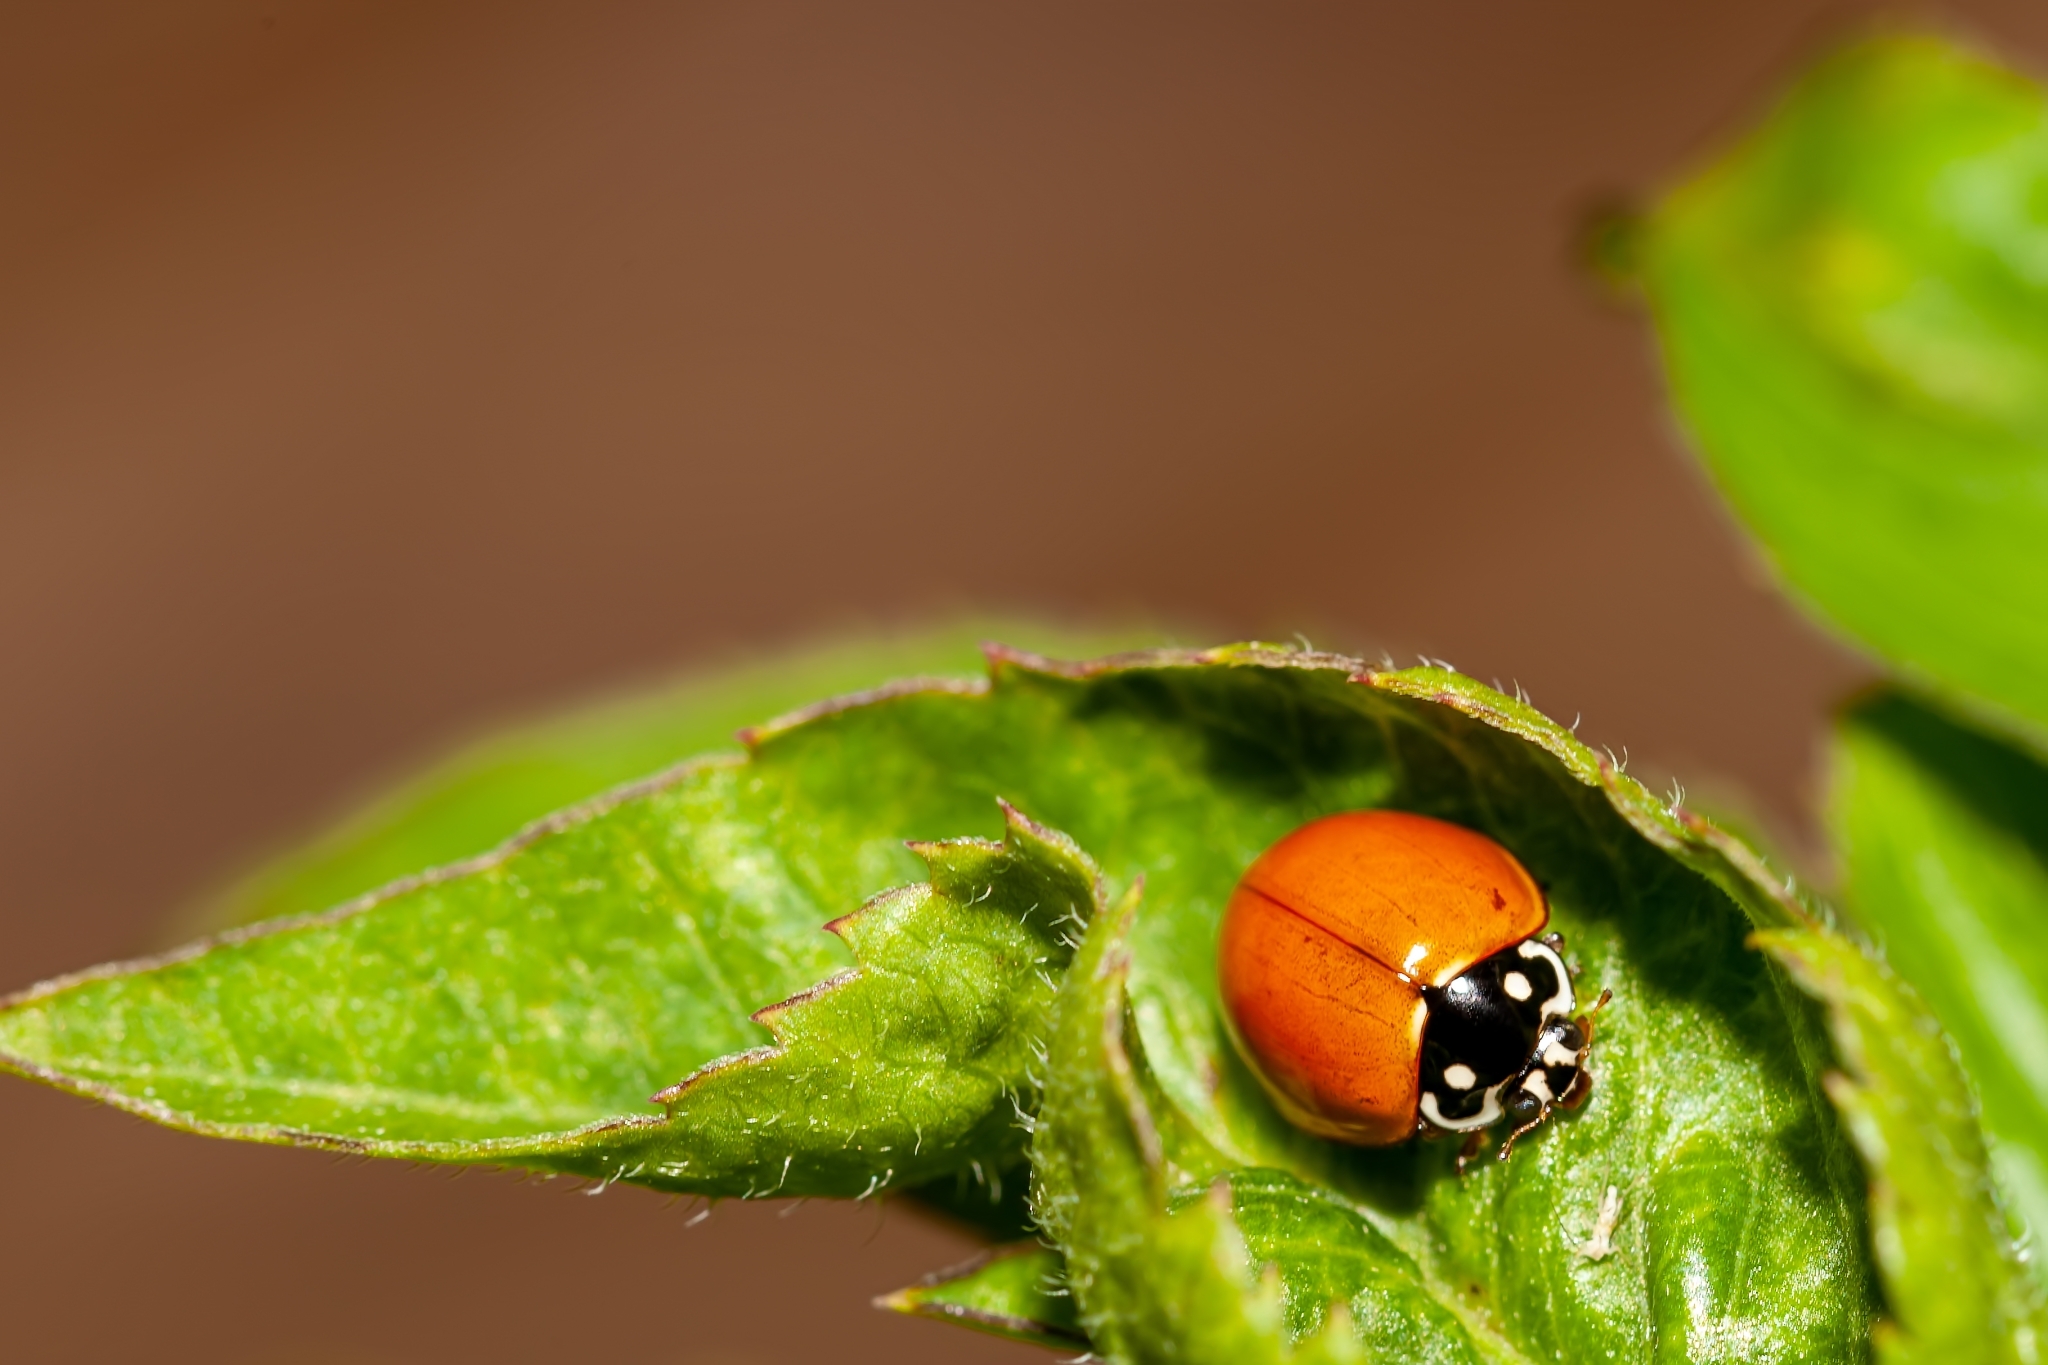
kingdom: Animalia
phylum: Arthropoda
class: Insecta
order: Coleoptera
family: Coccinellidae
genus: Cycloneda
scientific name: Cycloneda sanguinea
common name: Ladybird beetle
